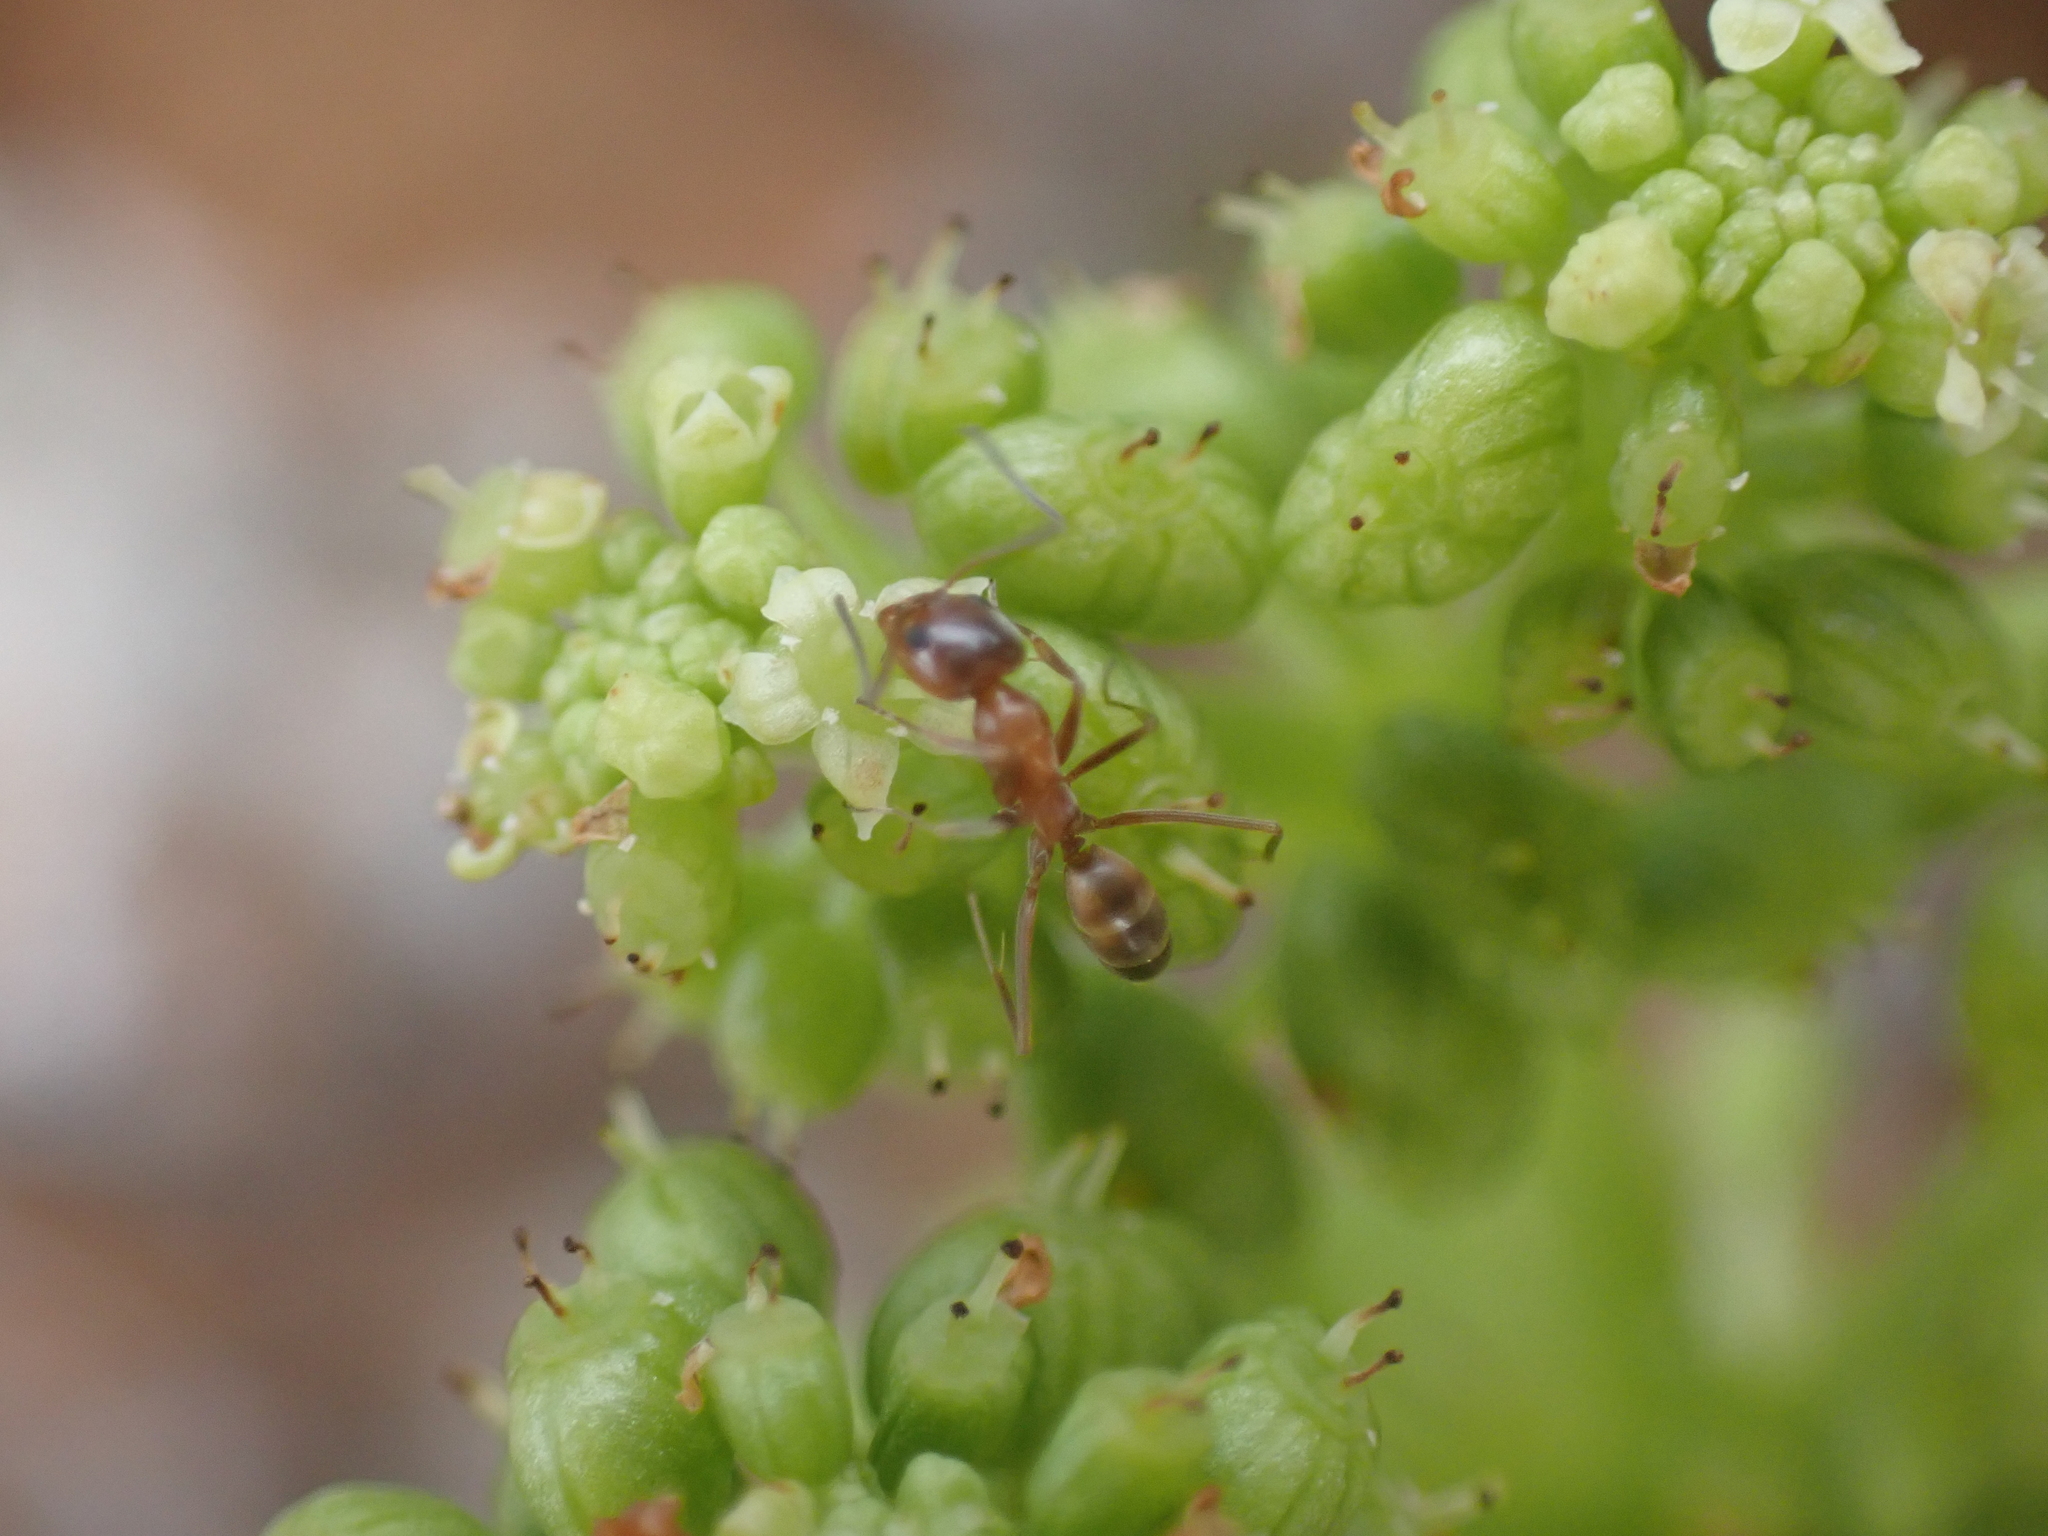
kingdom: Animalia
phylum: Arthropoda
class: Insecta
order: Hymenoptera
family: Formicidae
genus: Dorymyrmex
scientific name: Dorymyrmex bureni
